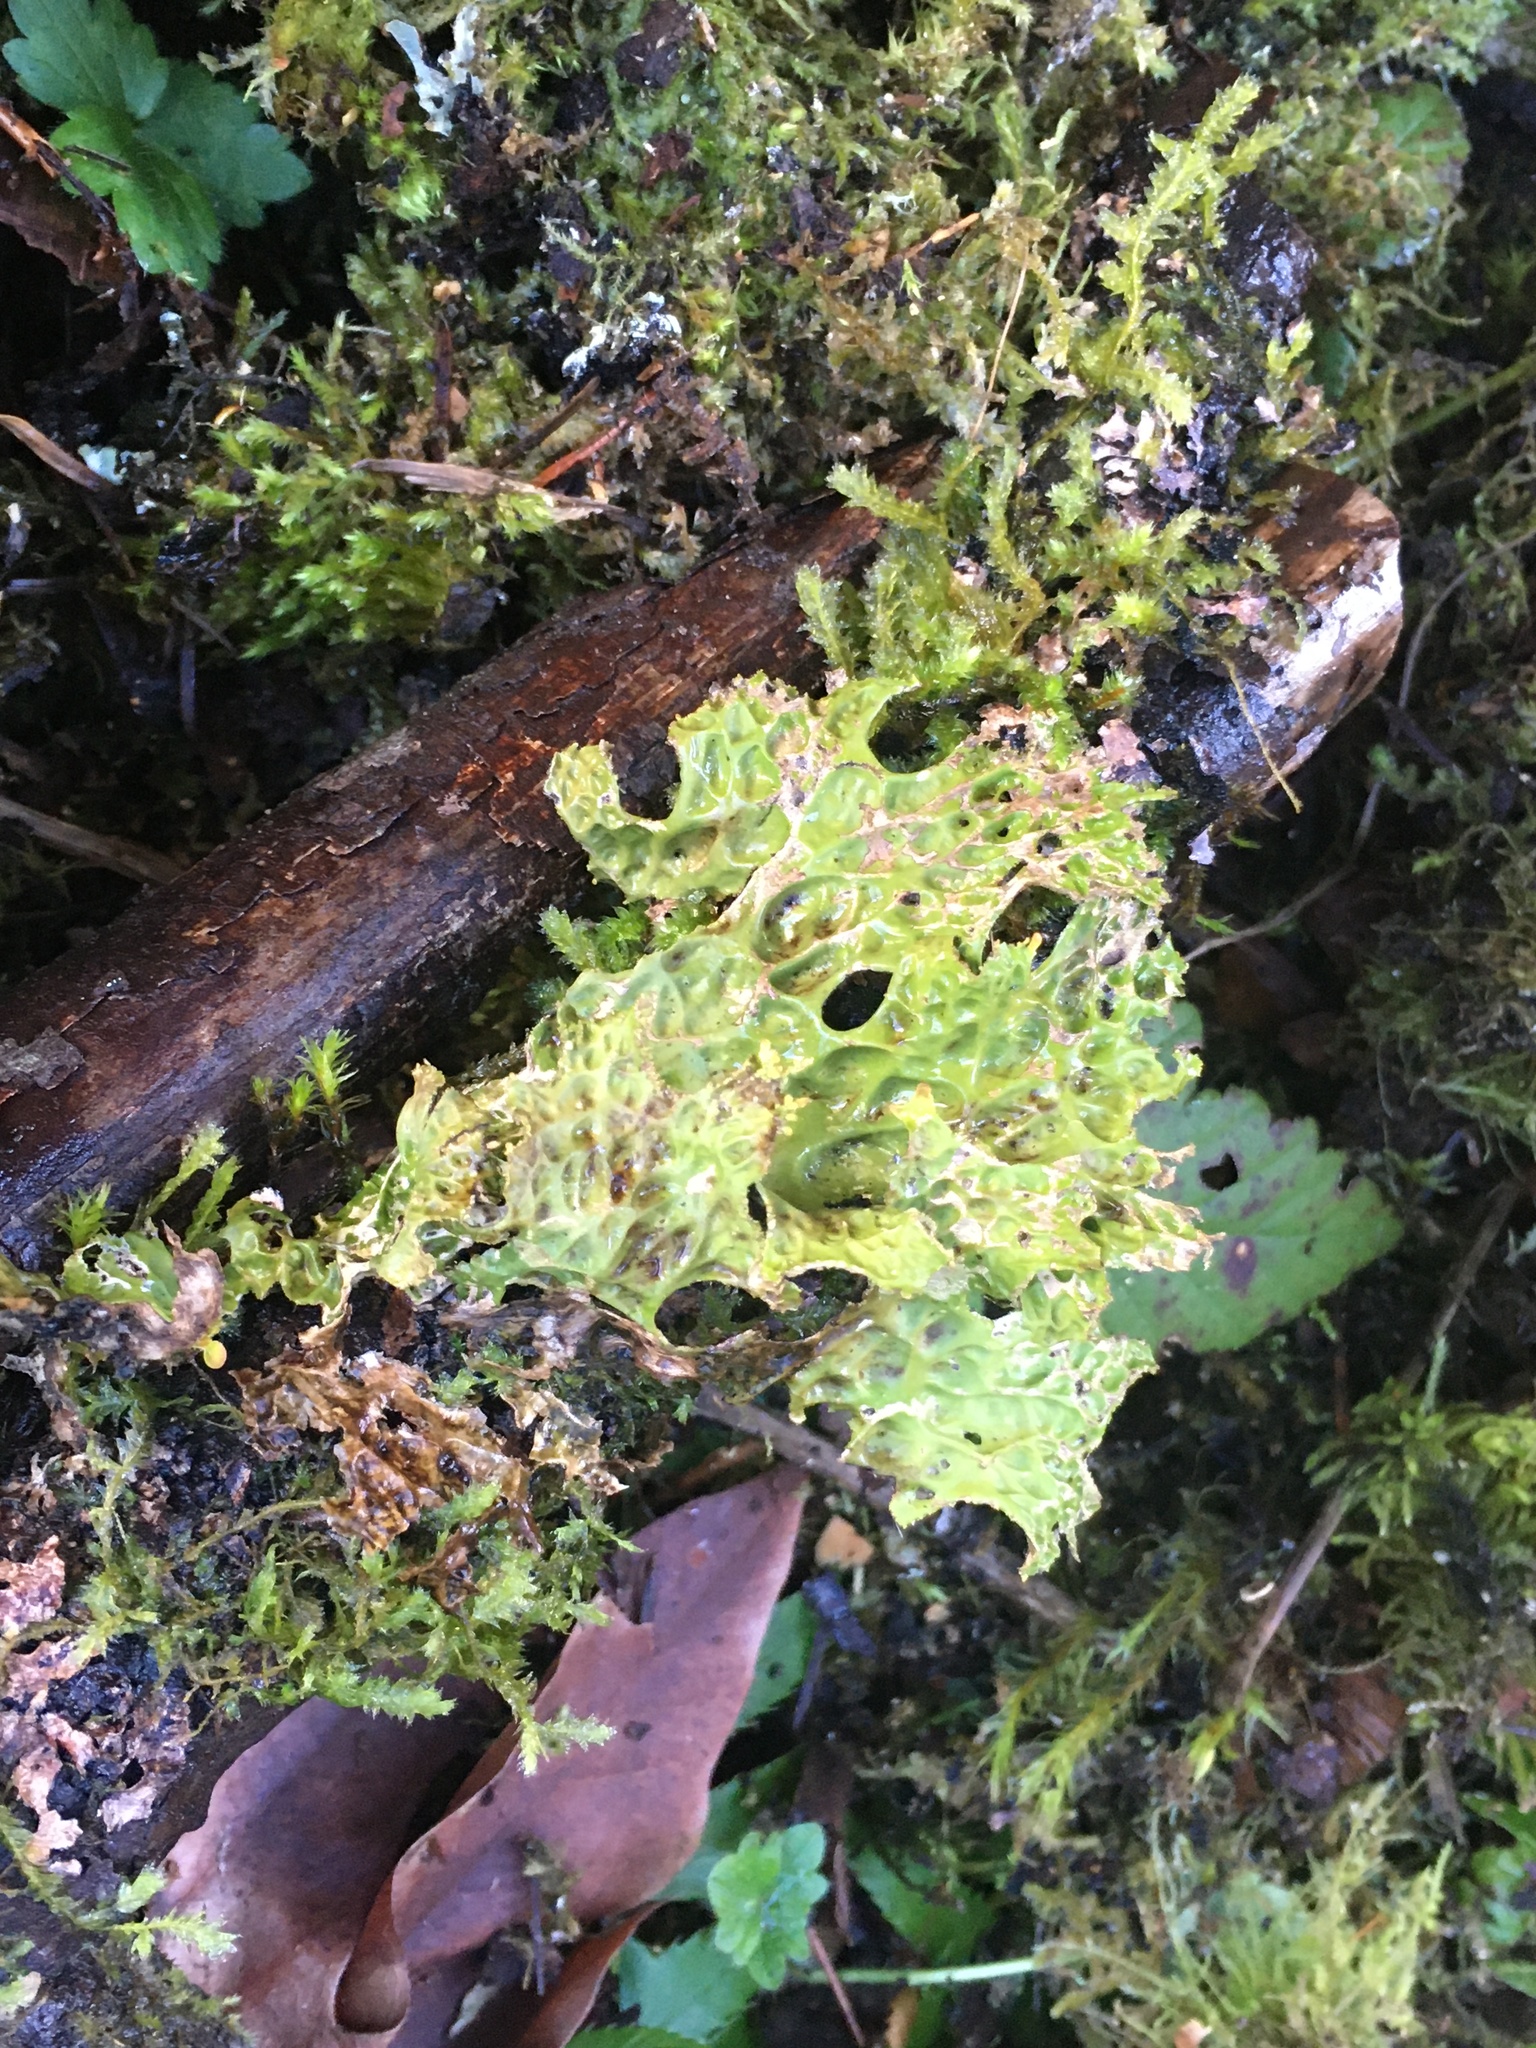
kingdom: Fungi
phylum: Ascomycota
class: Lecanoromycetes
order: Peltigerales
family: Lobariaceae
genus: Lobaria
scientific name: Lobaria pulmonaria
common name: Lungwort
